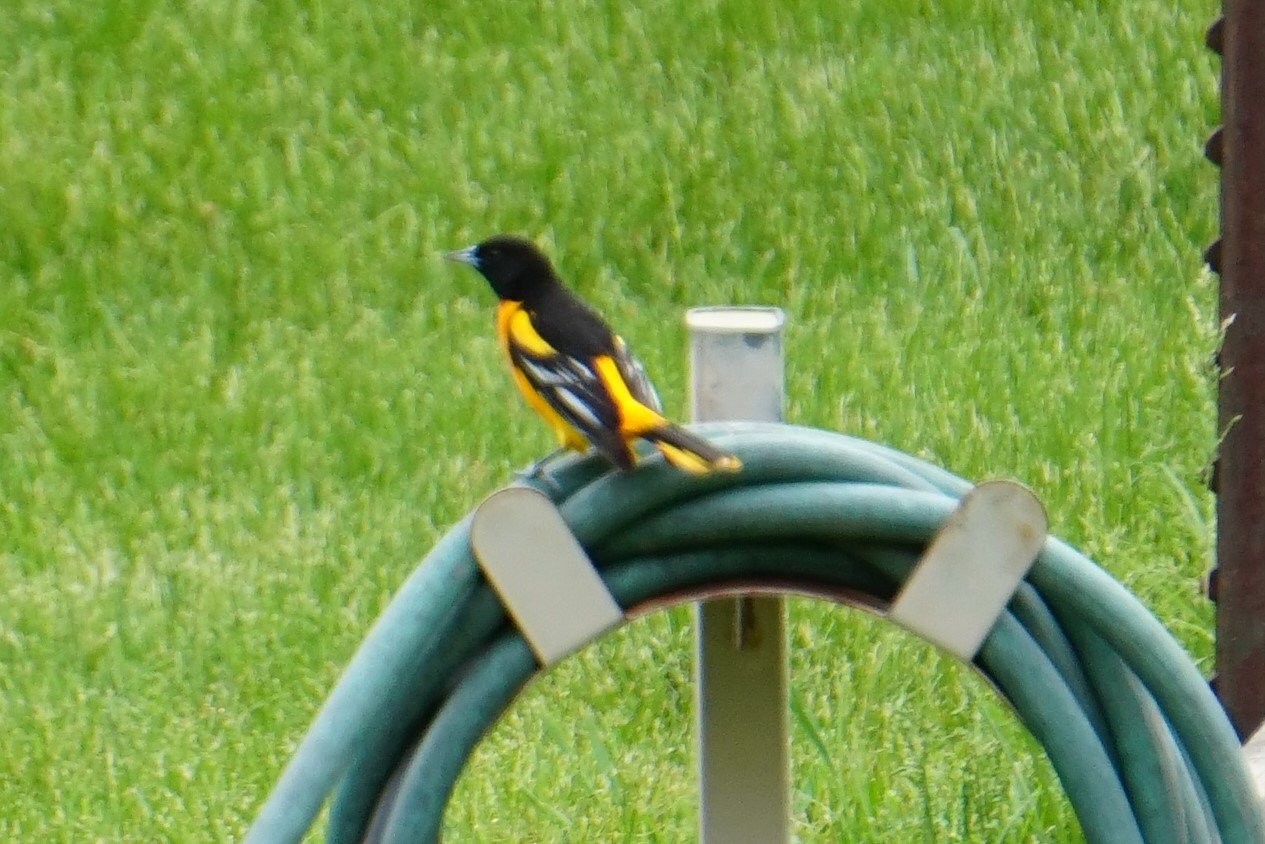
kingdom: Animalia
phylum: Chordata
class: Aves
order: Passeriformes
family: Icteridae
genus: Icterus
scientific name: Icterus galbula
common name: Baltimore oriole
